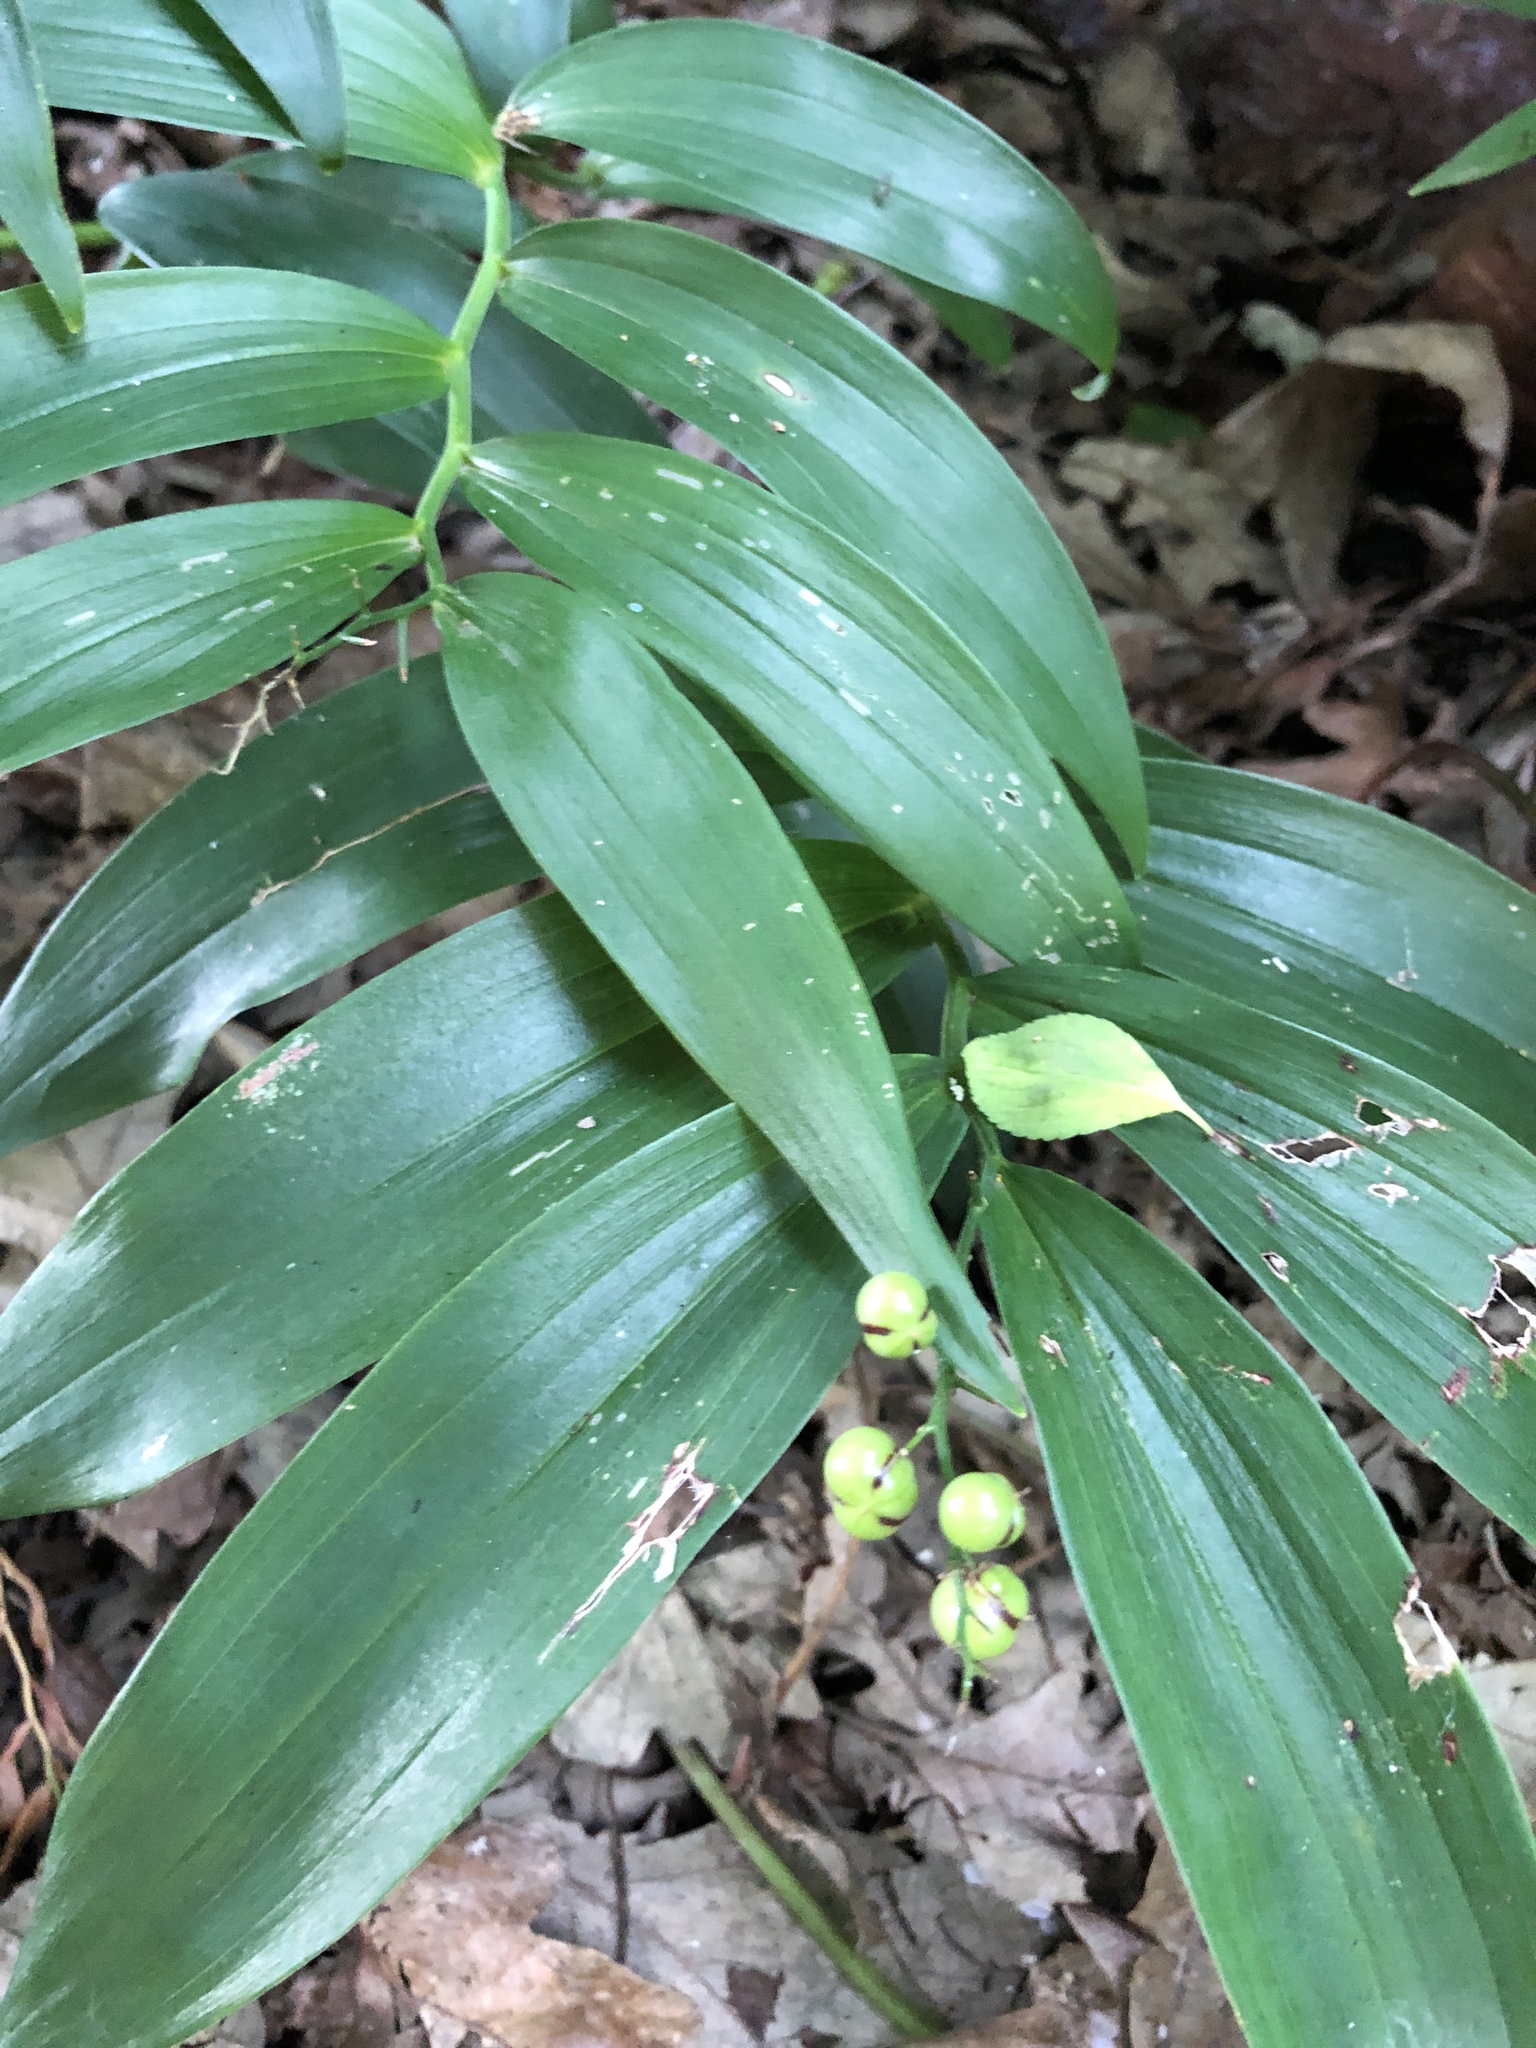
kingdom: Plantae
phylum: Tracheophyta
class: Liliopsida
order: Asparagales
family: Asparagaceae
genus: Maianthemum
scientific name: Maianthemum stellatum
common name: Little false solomon's seal
